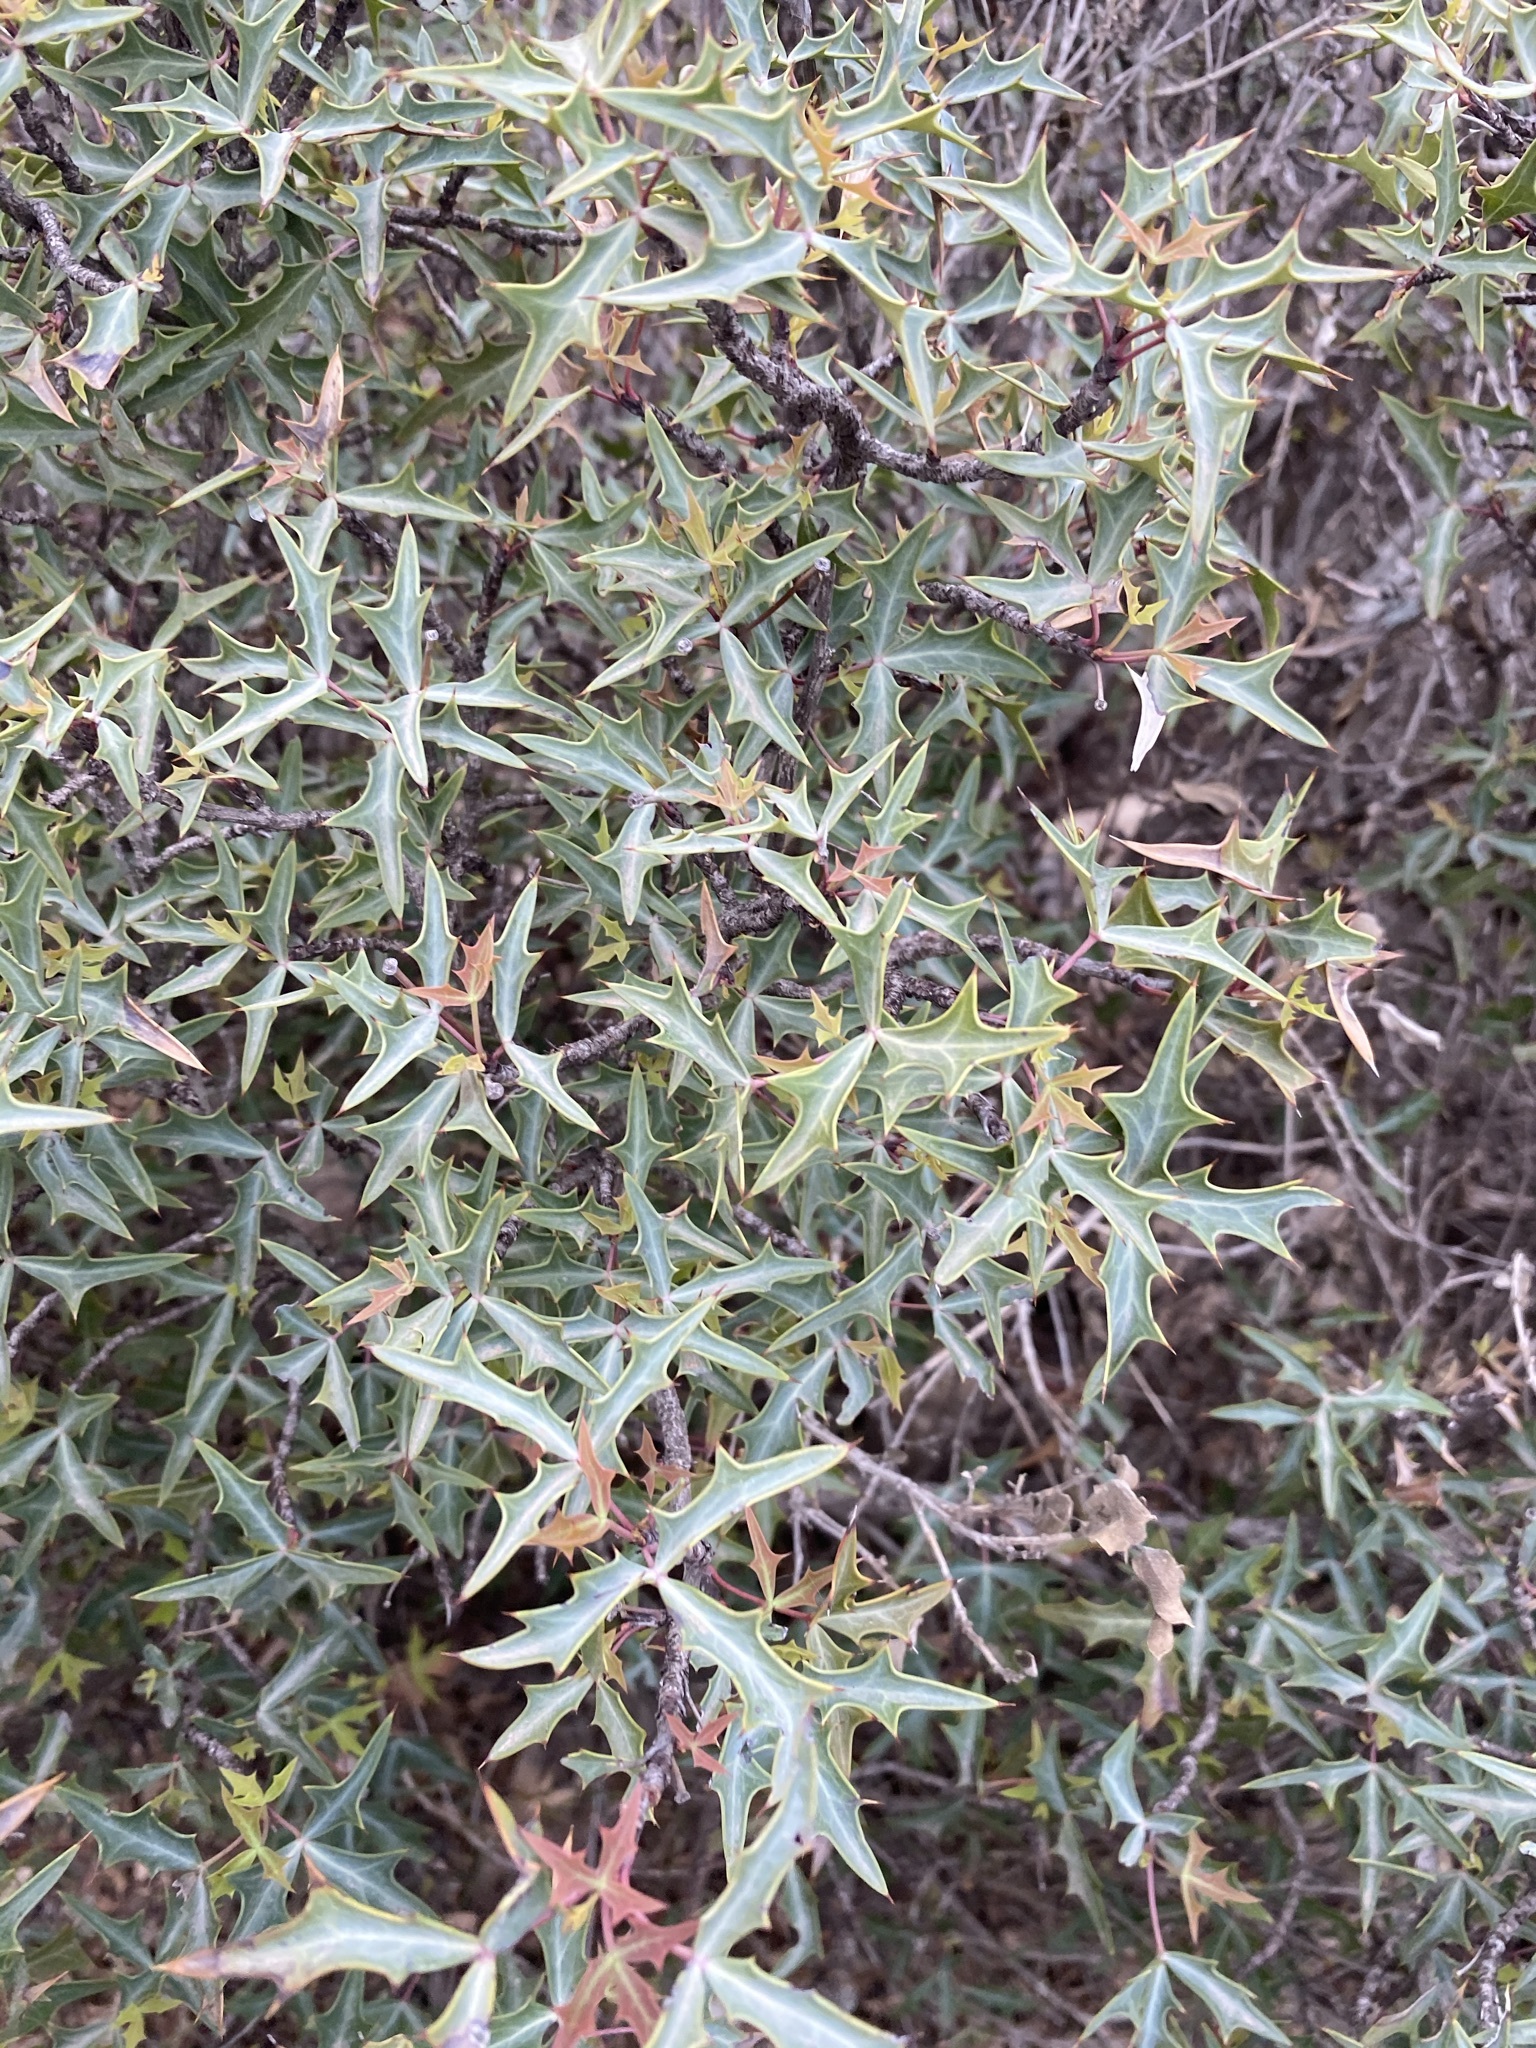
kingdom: Plantae
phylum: Tracheophyta
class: Magnoliopsida
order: Ranunculales
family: Berberidaceae
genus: Alloberberis
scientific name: Alloberberis trifoliolata
